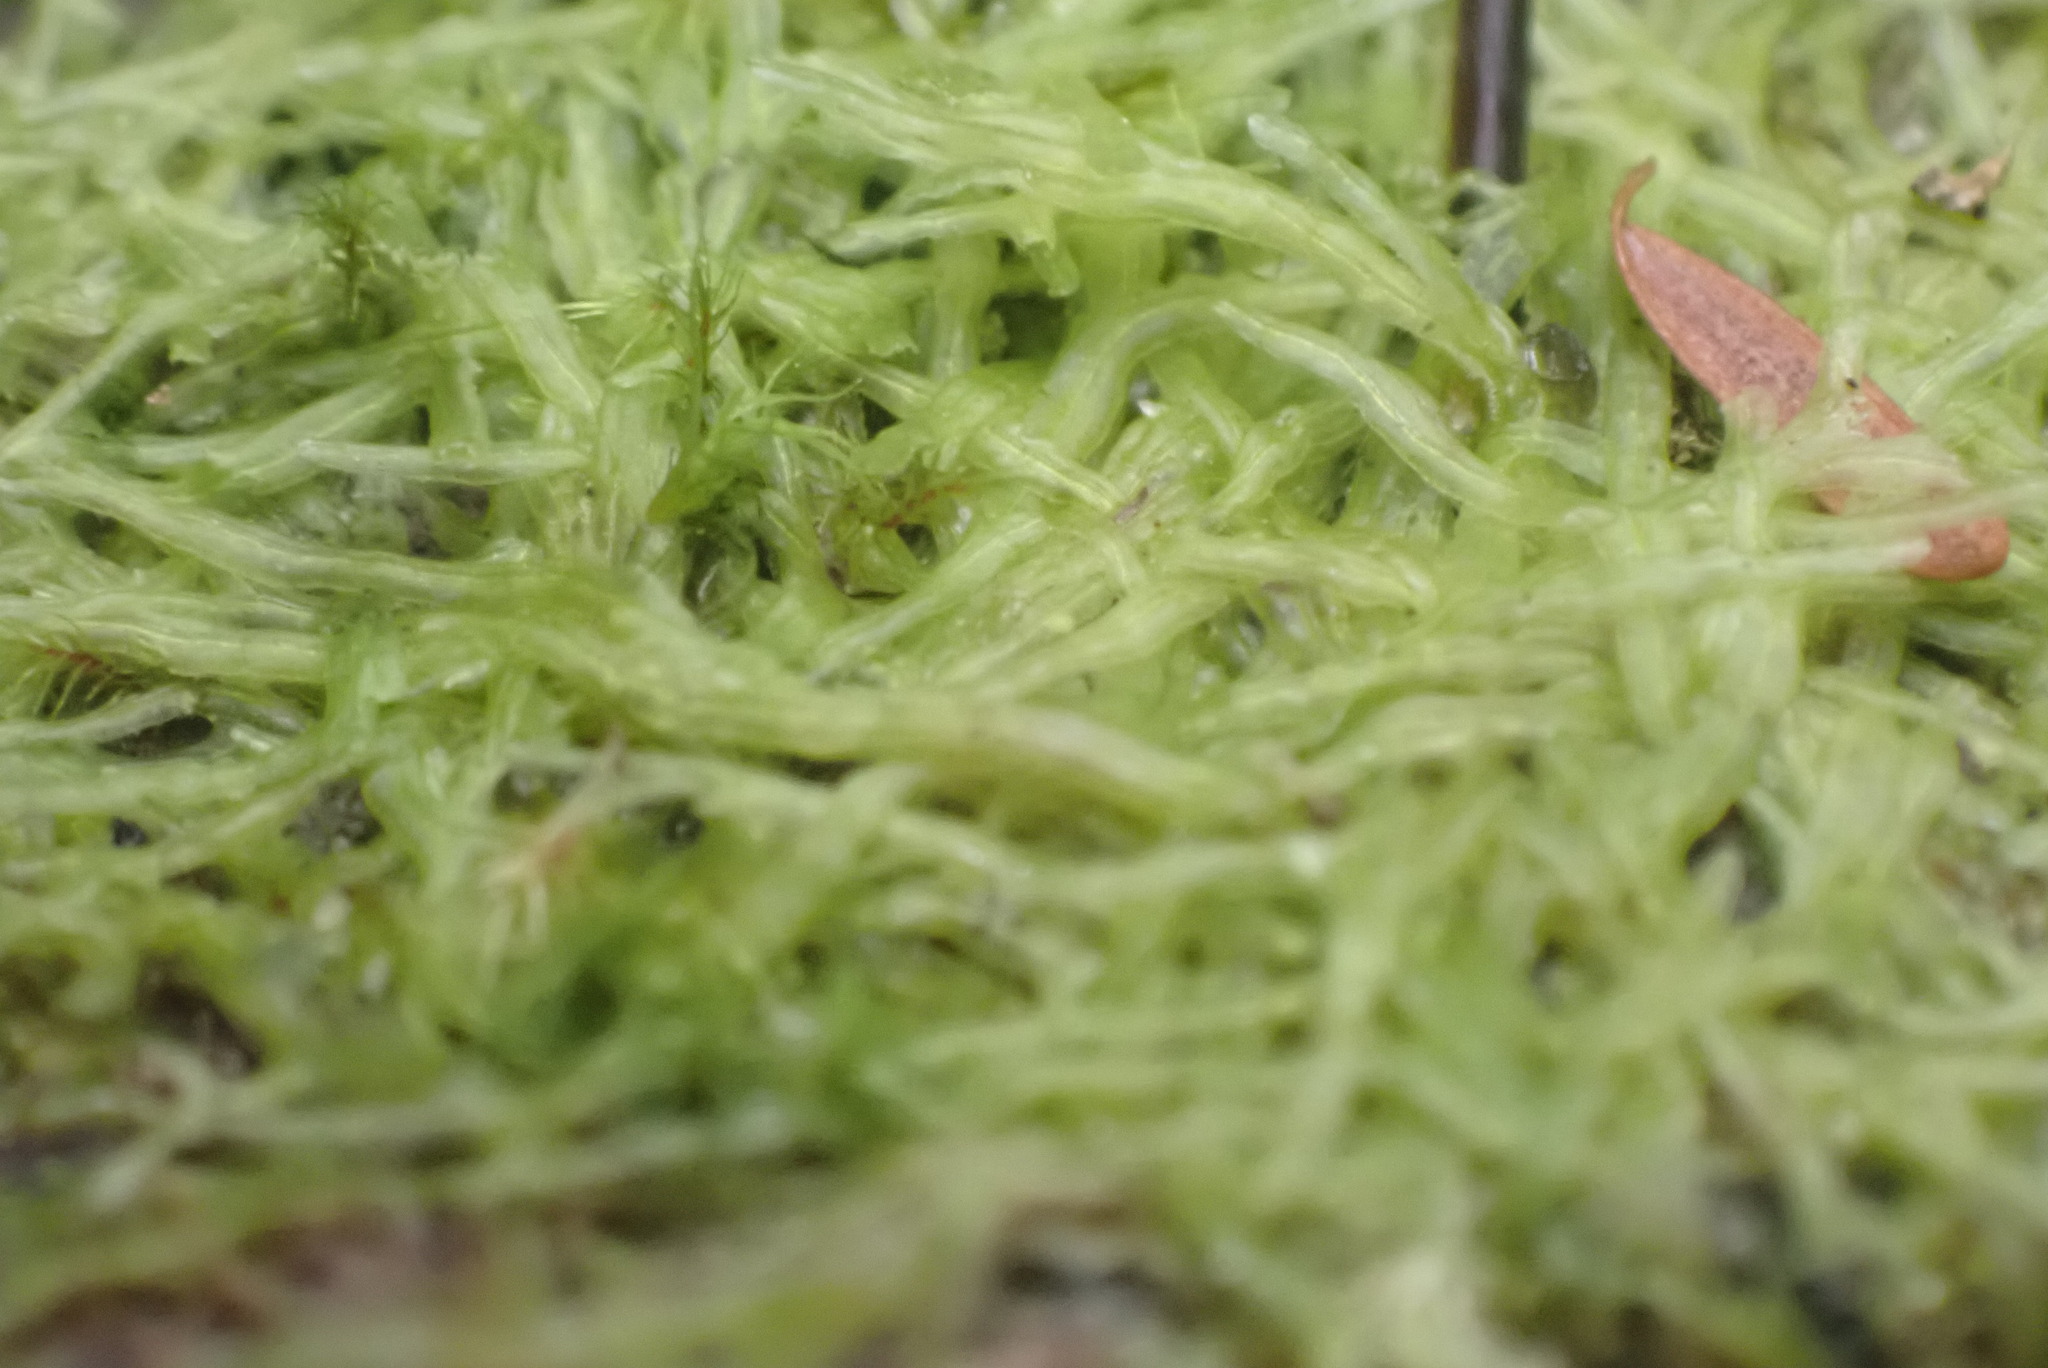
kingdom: Plantae
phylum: Marchantiophyta
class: Jungermanniopsida
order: Metzgeriales
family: Metzgeriaceae
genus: Metzgeria
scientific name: Metzgeria conjugata
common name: Rock veilwort
